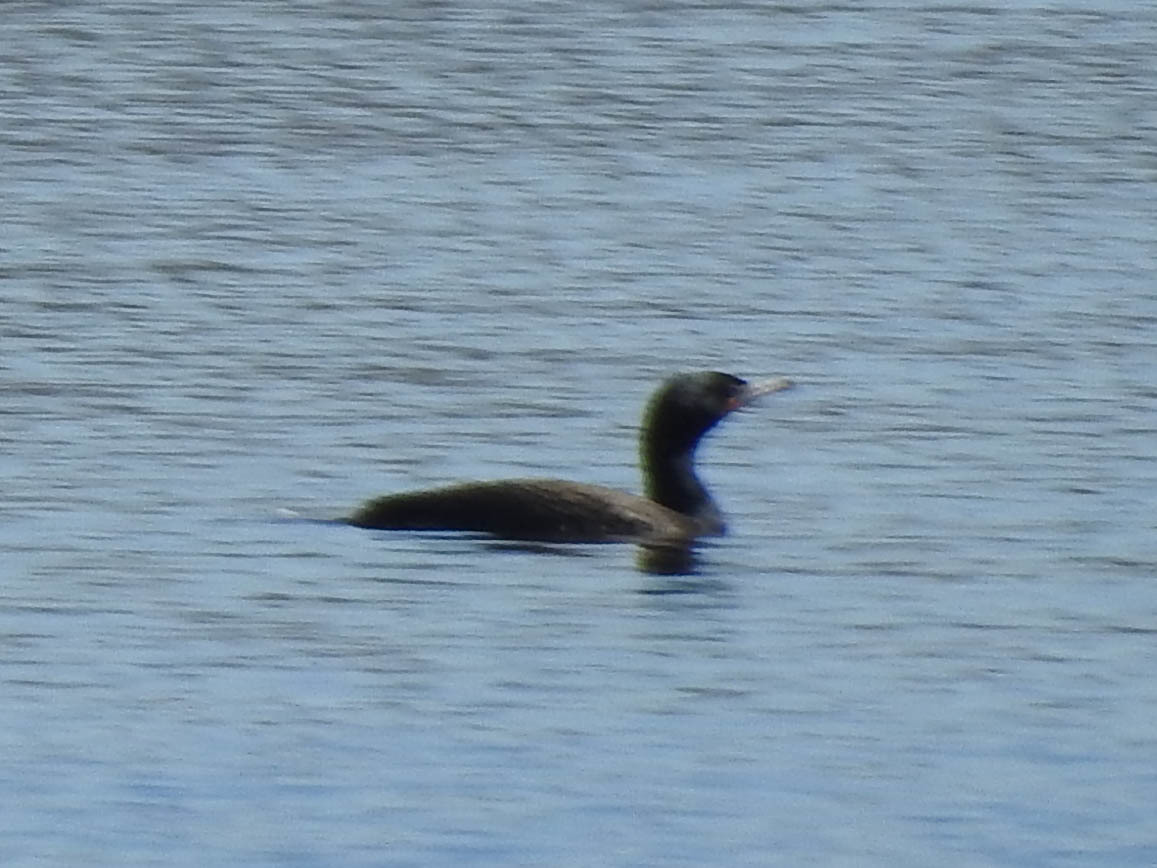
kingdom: Animalia
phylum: Chordata
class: Aves
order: Suliformes
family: Phalacrocoracidae
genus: Phalacrocorax
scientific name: Phalacrocorax auritus
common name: Double-crested cormorant
